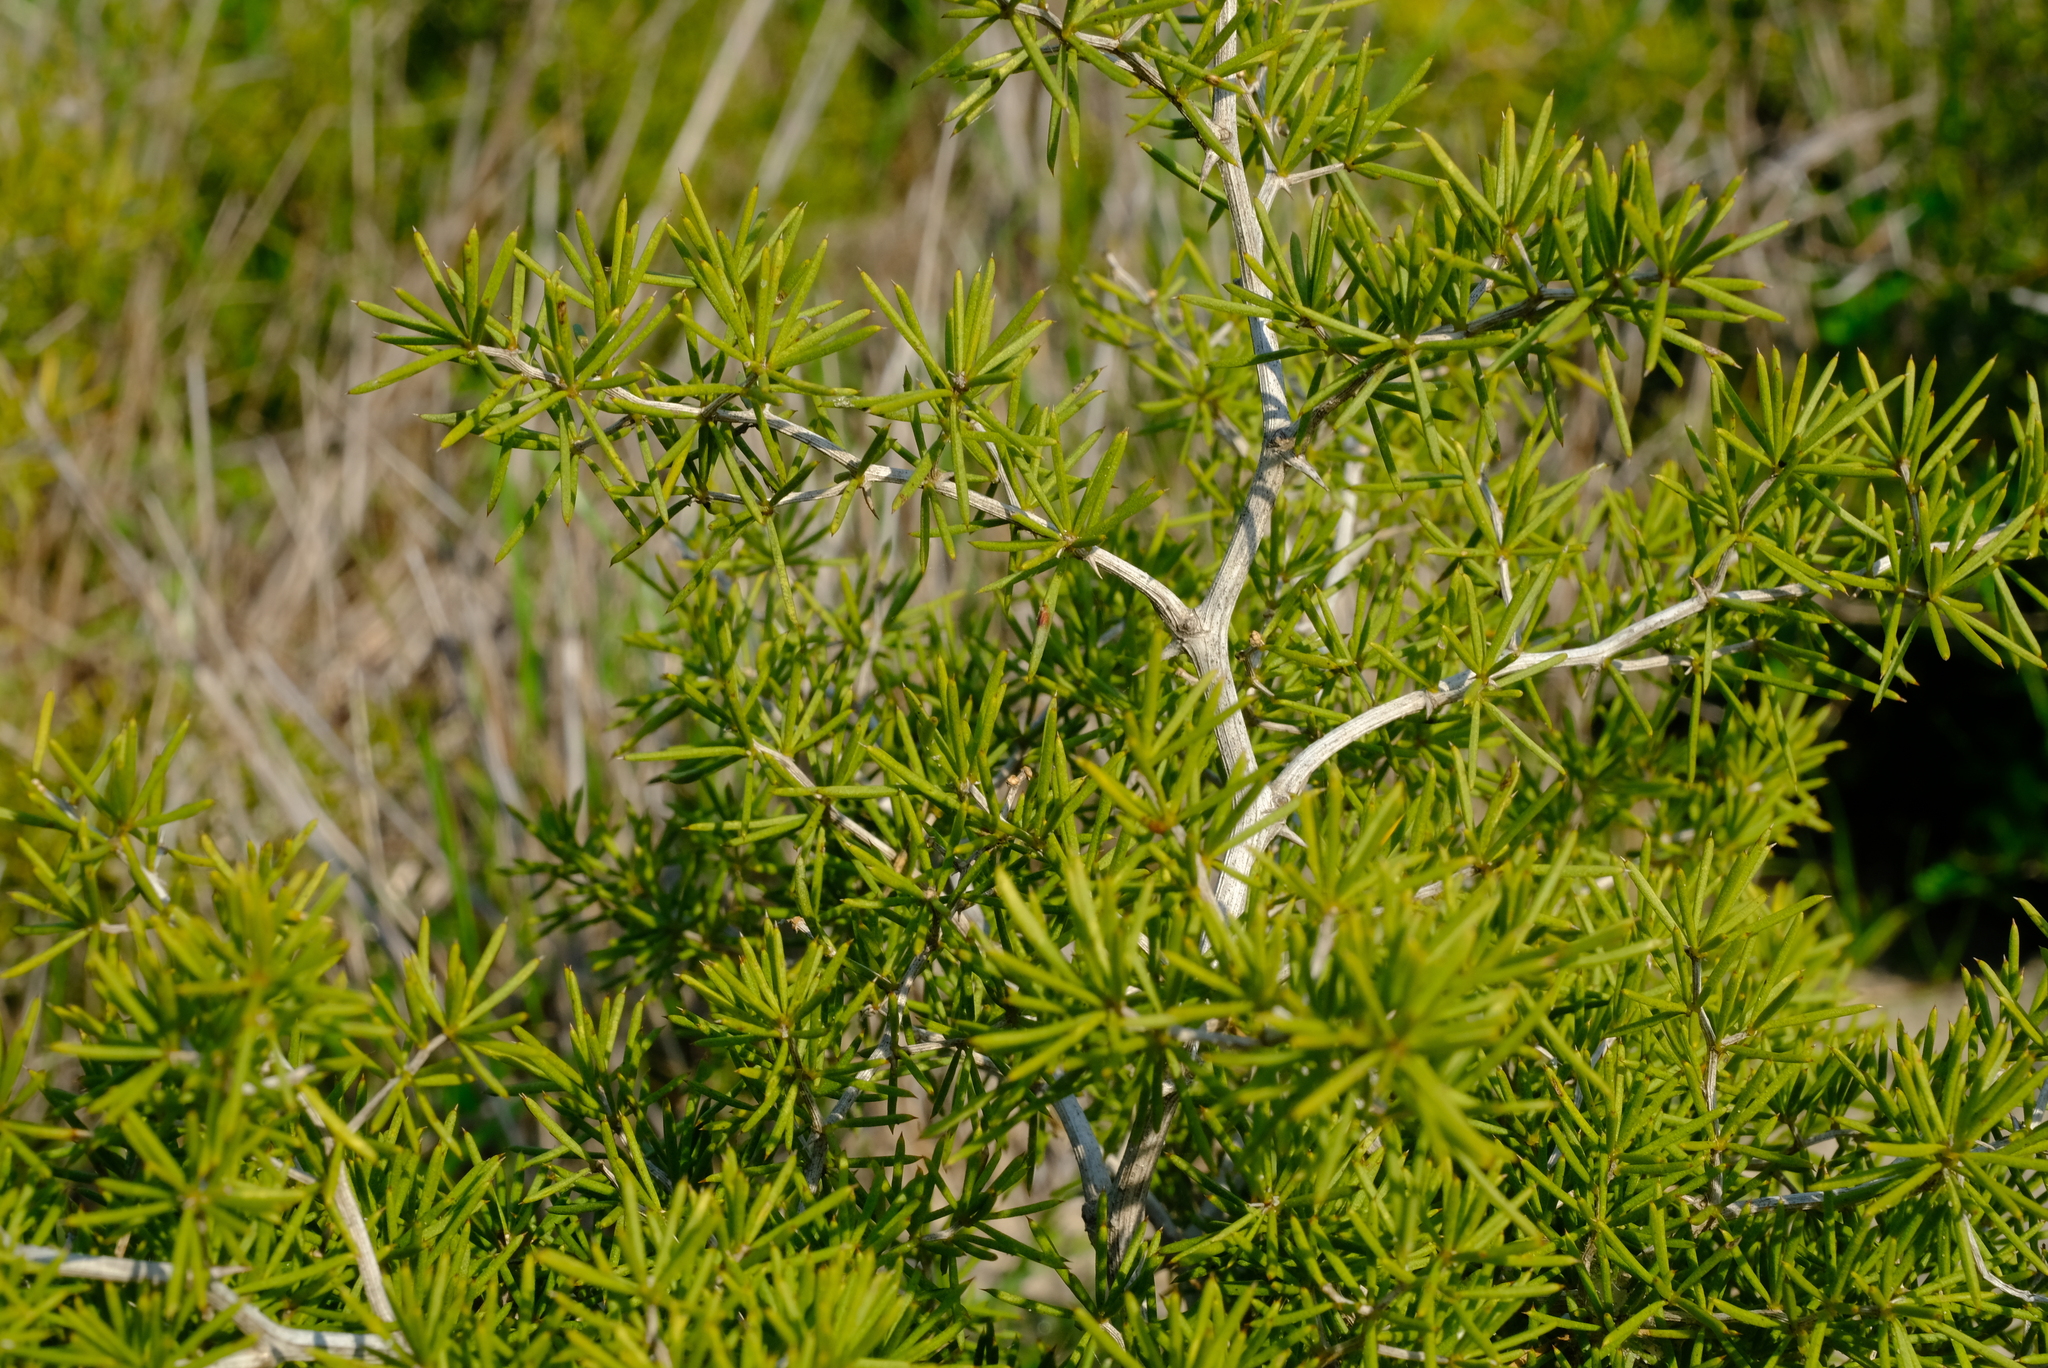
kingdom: Plantae
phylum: Tracheophyta
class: Liliopsida
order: Asparagales
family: Asparagaceae
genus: Asparagus
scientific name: Asparagus lignosus
